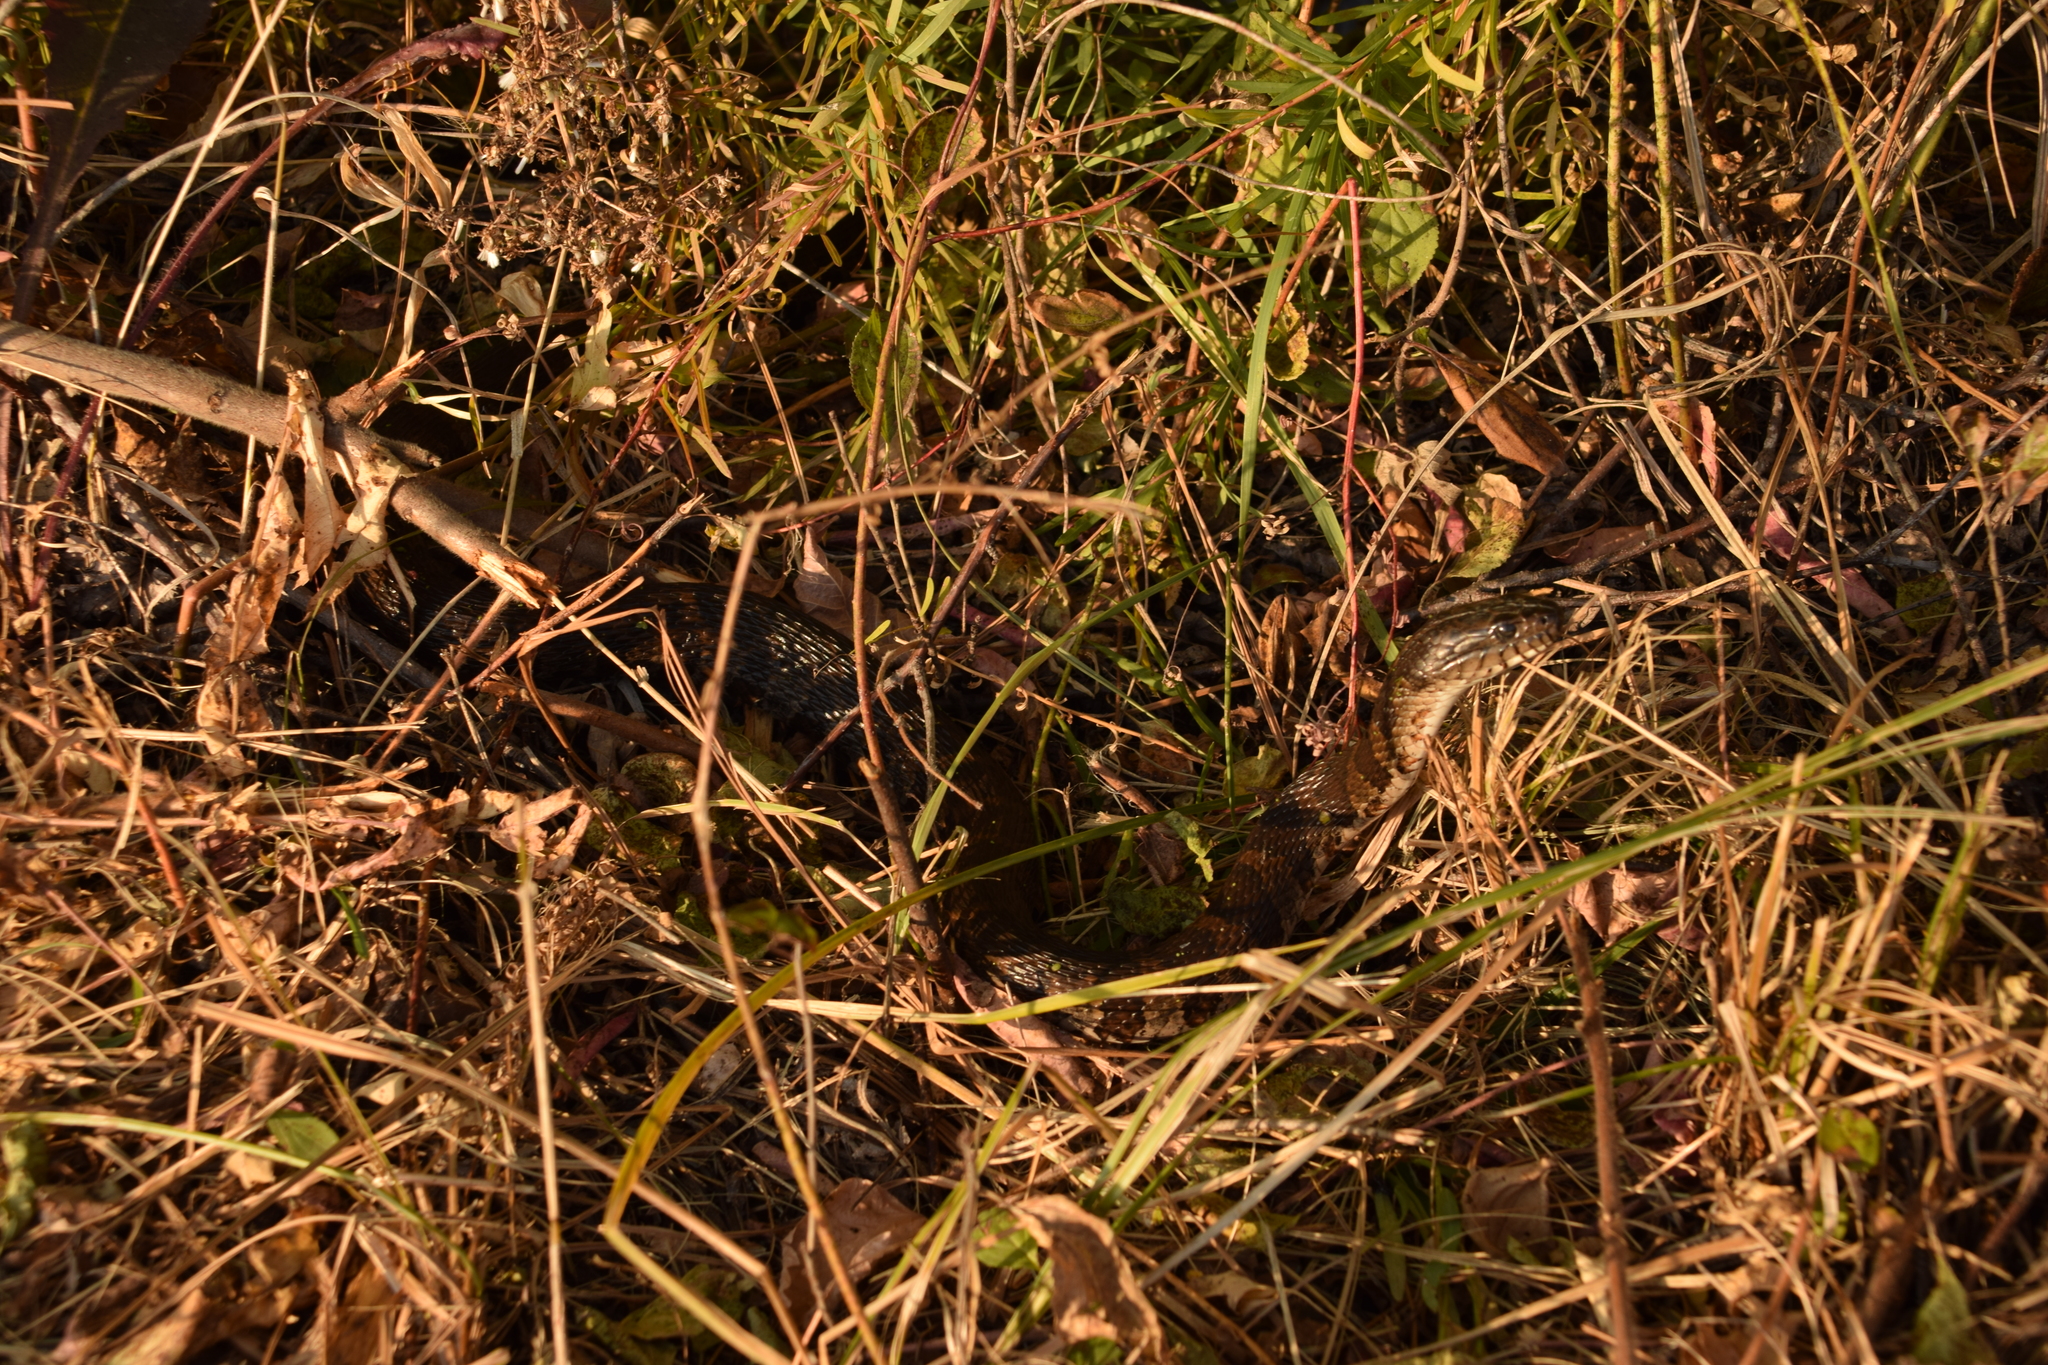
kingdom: Animalia
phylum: Chordata
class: Squamata
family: Colubridae
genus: Nerodia
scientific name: Nerodia sipedon
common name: Northern water snake
